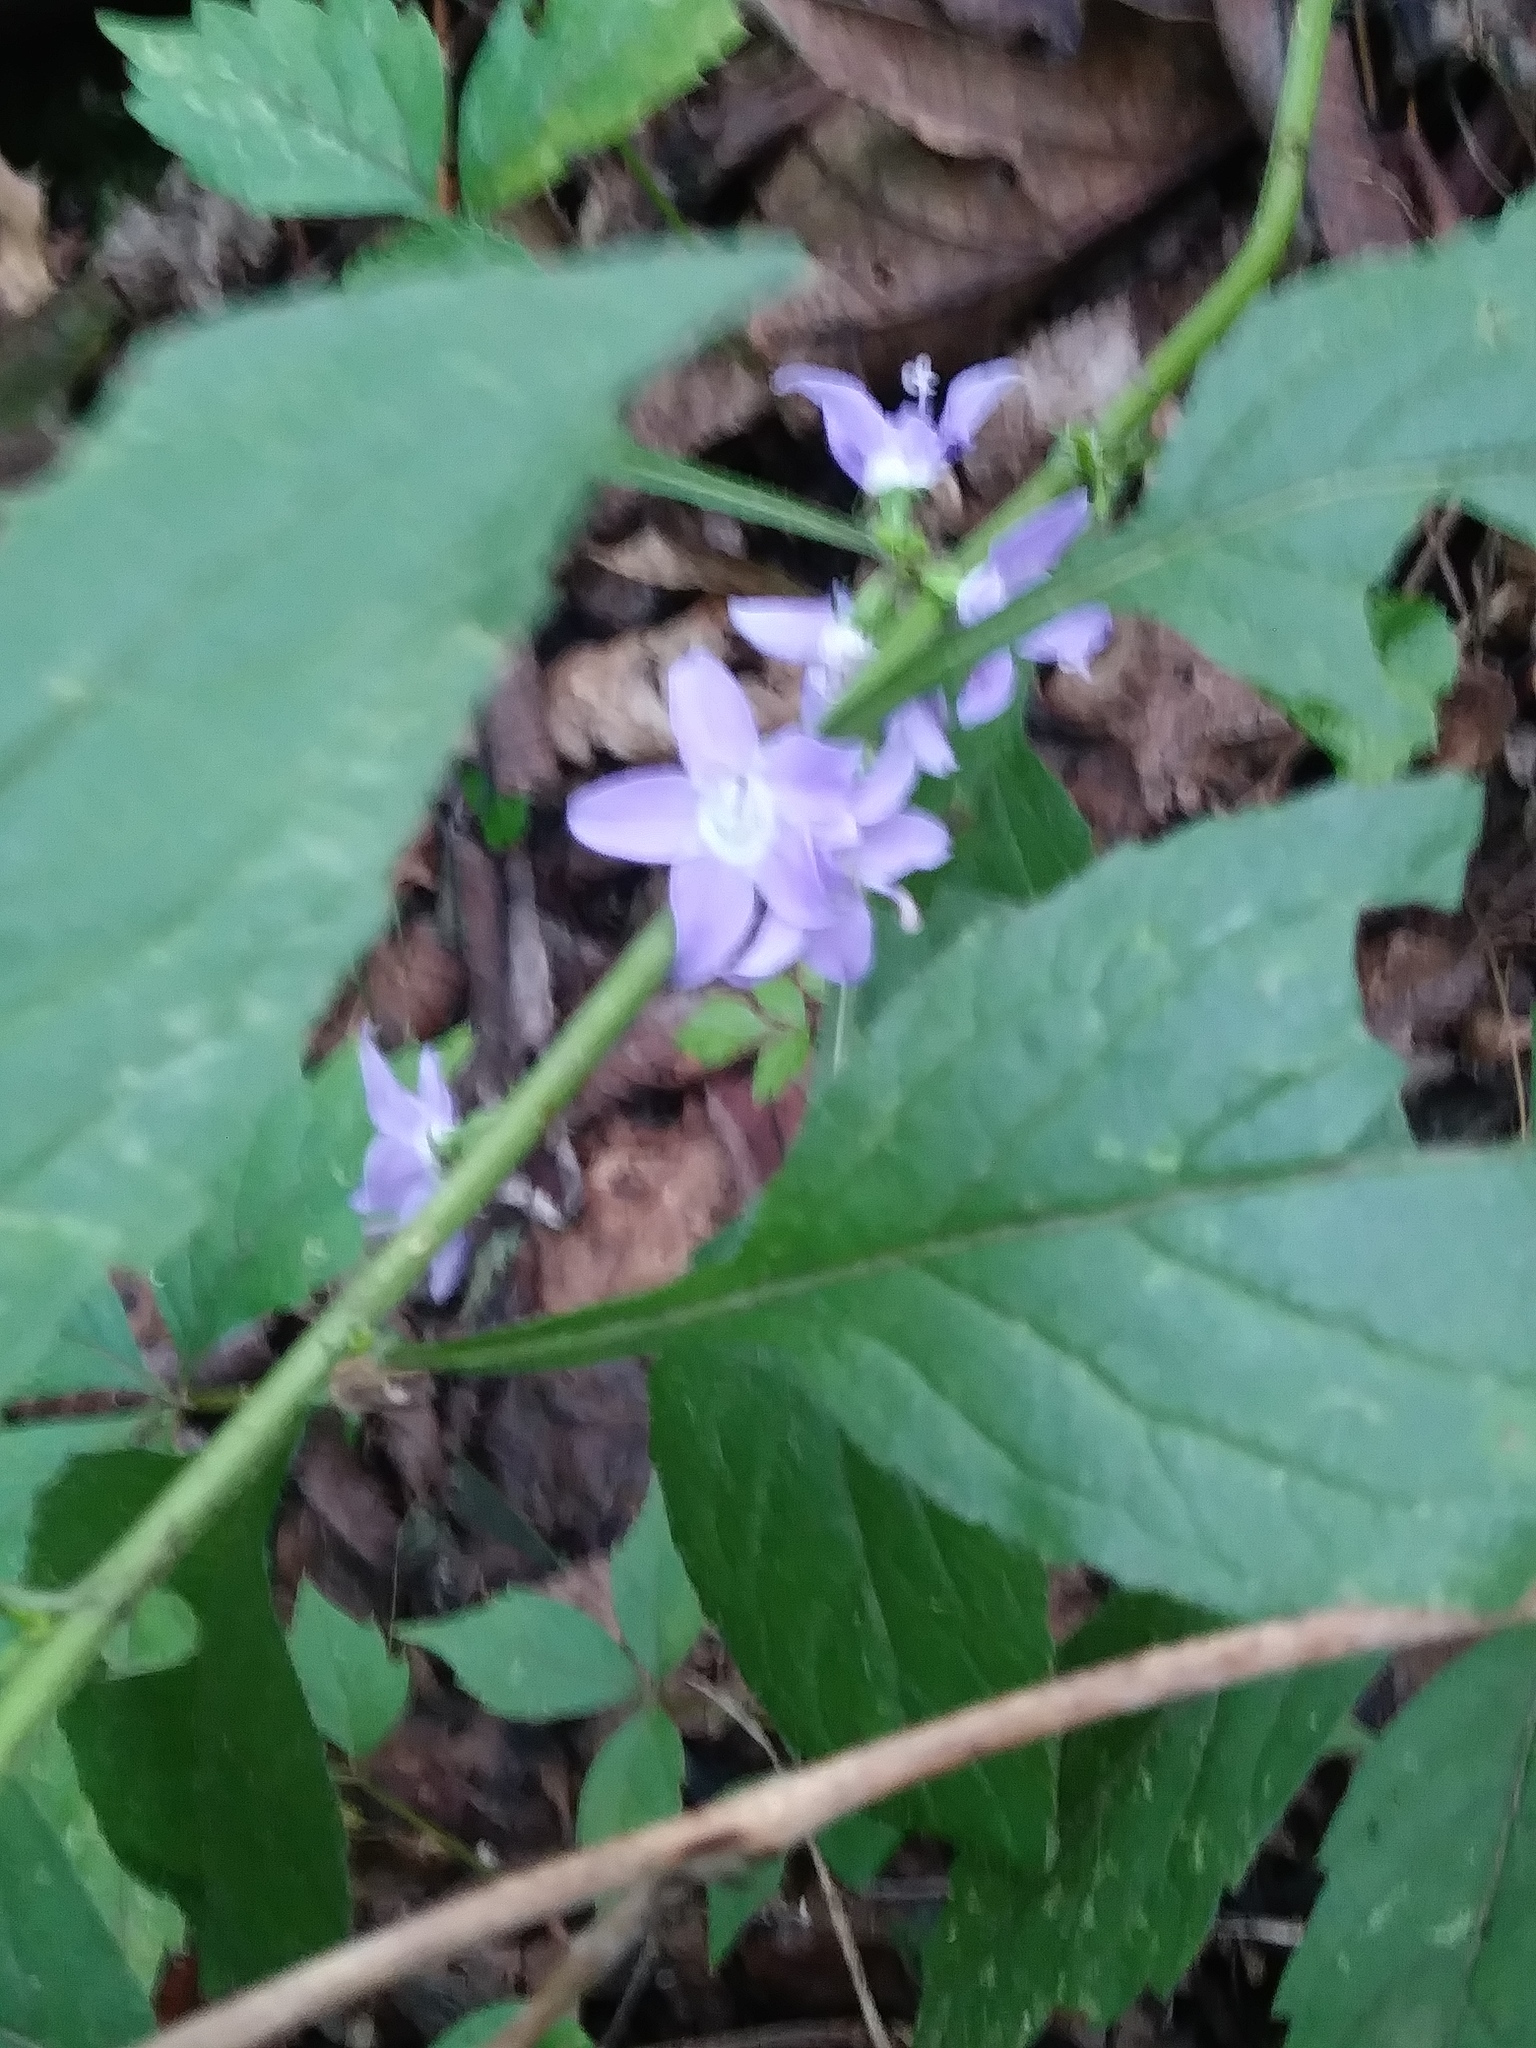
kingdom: Plantae
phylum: Tracheophyta
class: Magnoliopsida
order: Asterales
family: Campanulaceae
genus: Campanulastrum
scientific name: Campanulastrum americanum
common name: American bellflower
